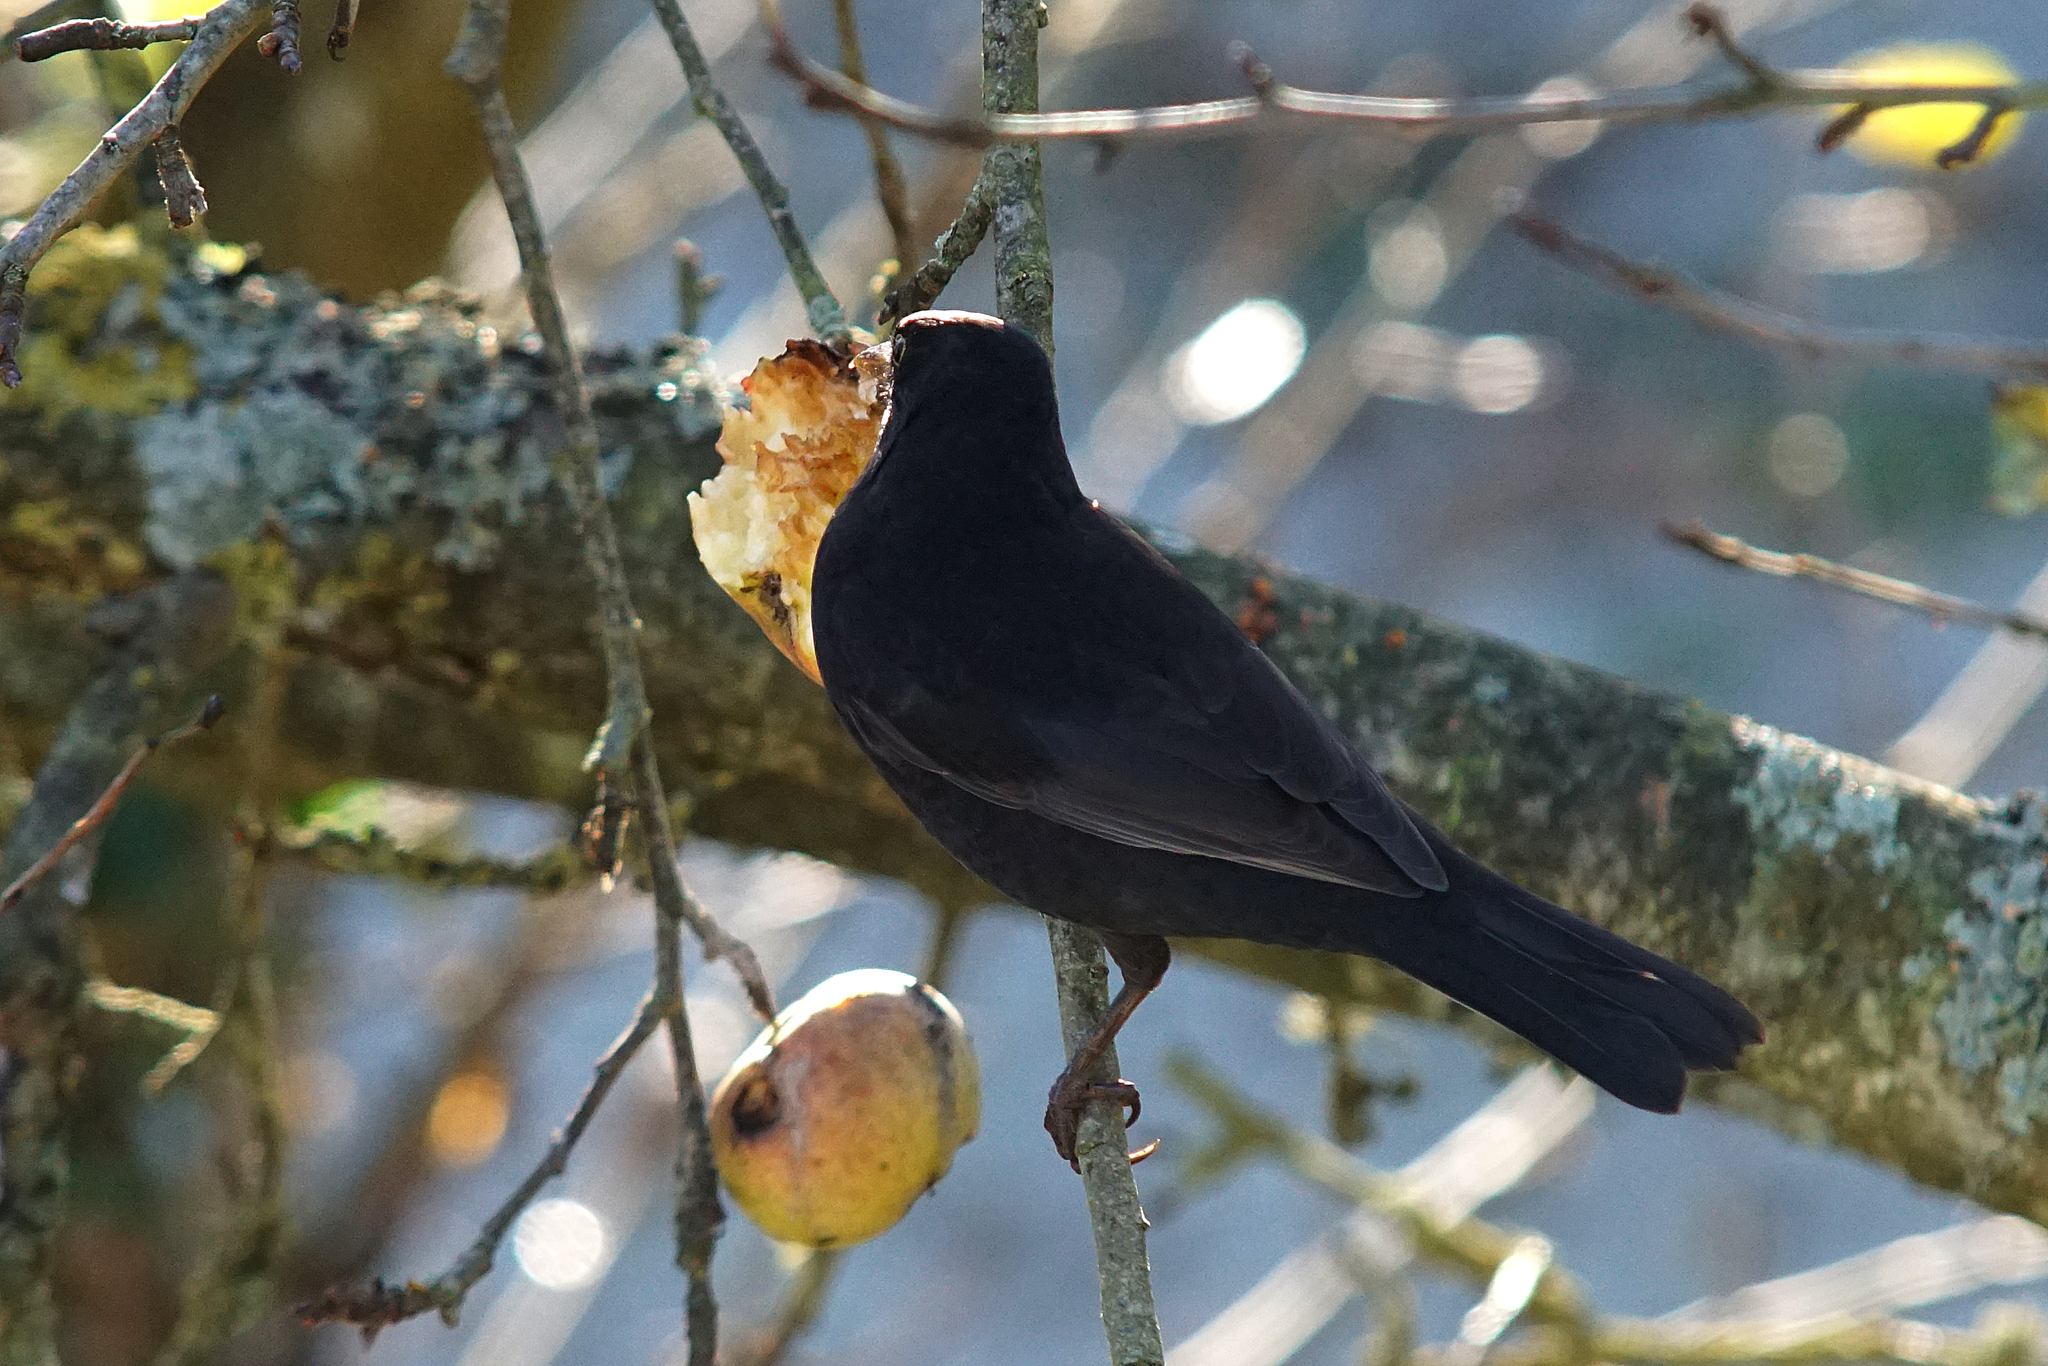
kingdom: Animalia
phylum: Chordata
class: Aves
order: Passeriformes
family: Turdidae
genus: Turdus
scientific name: Turdus merula
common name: Common blackbird
